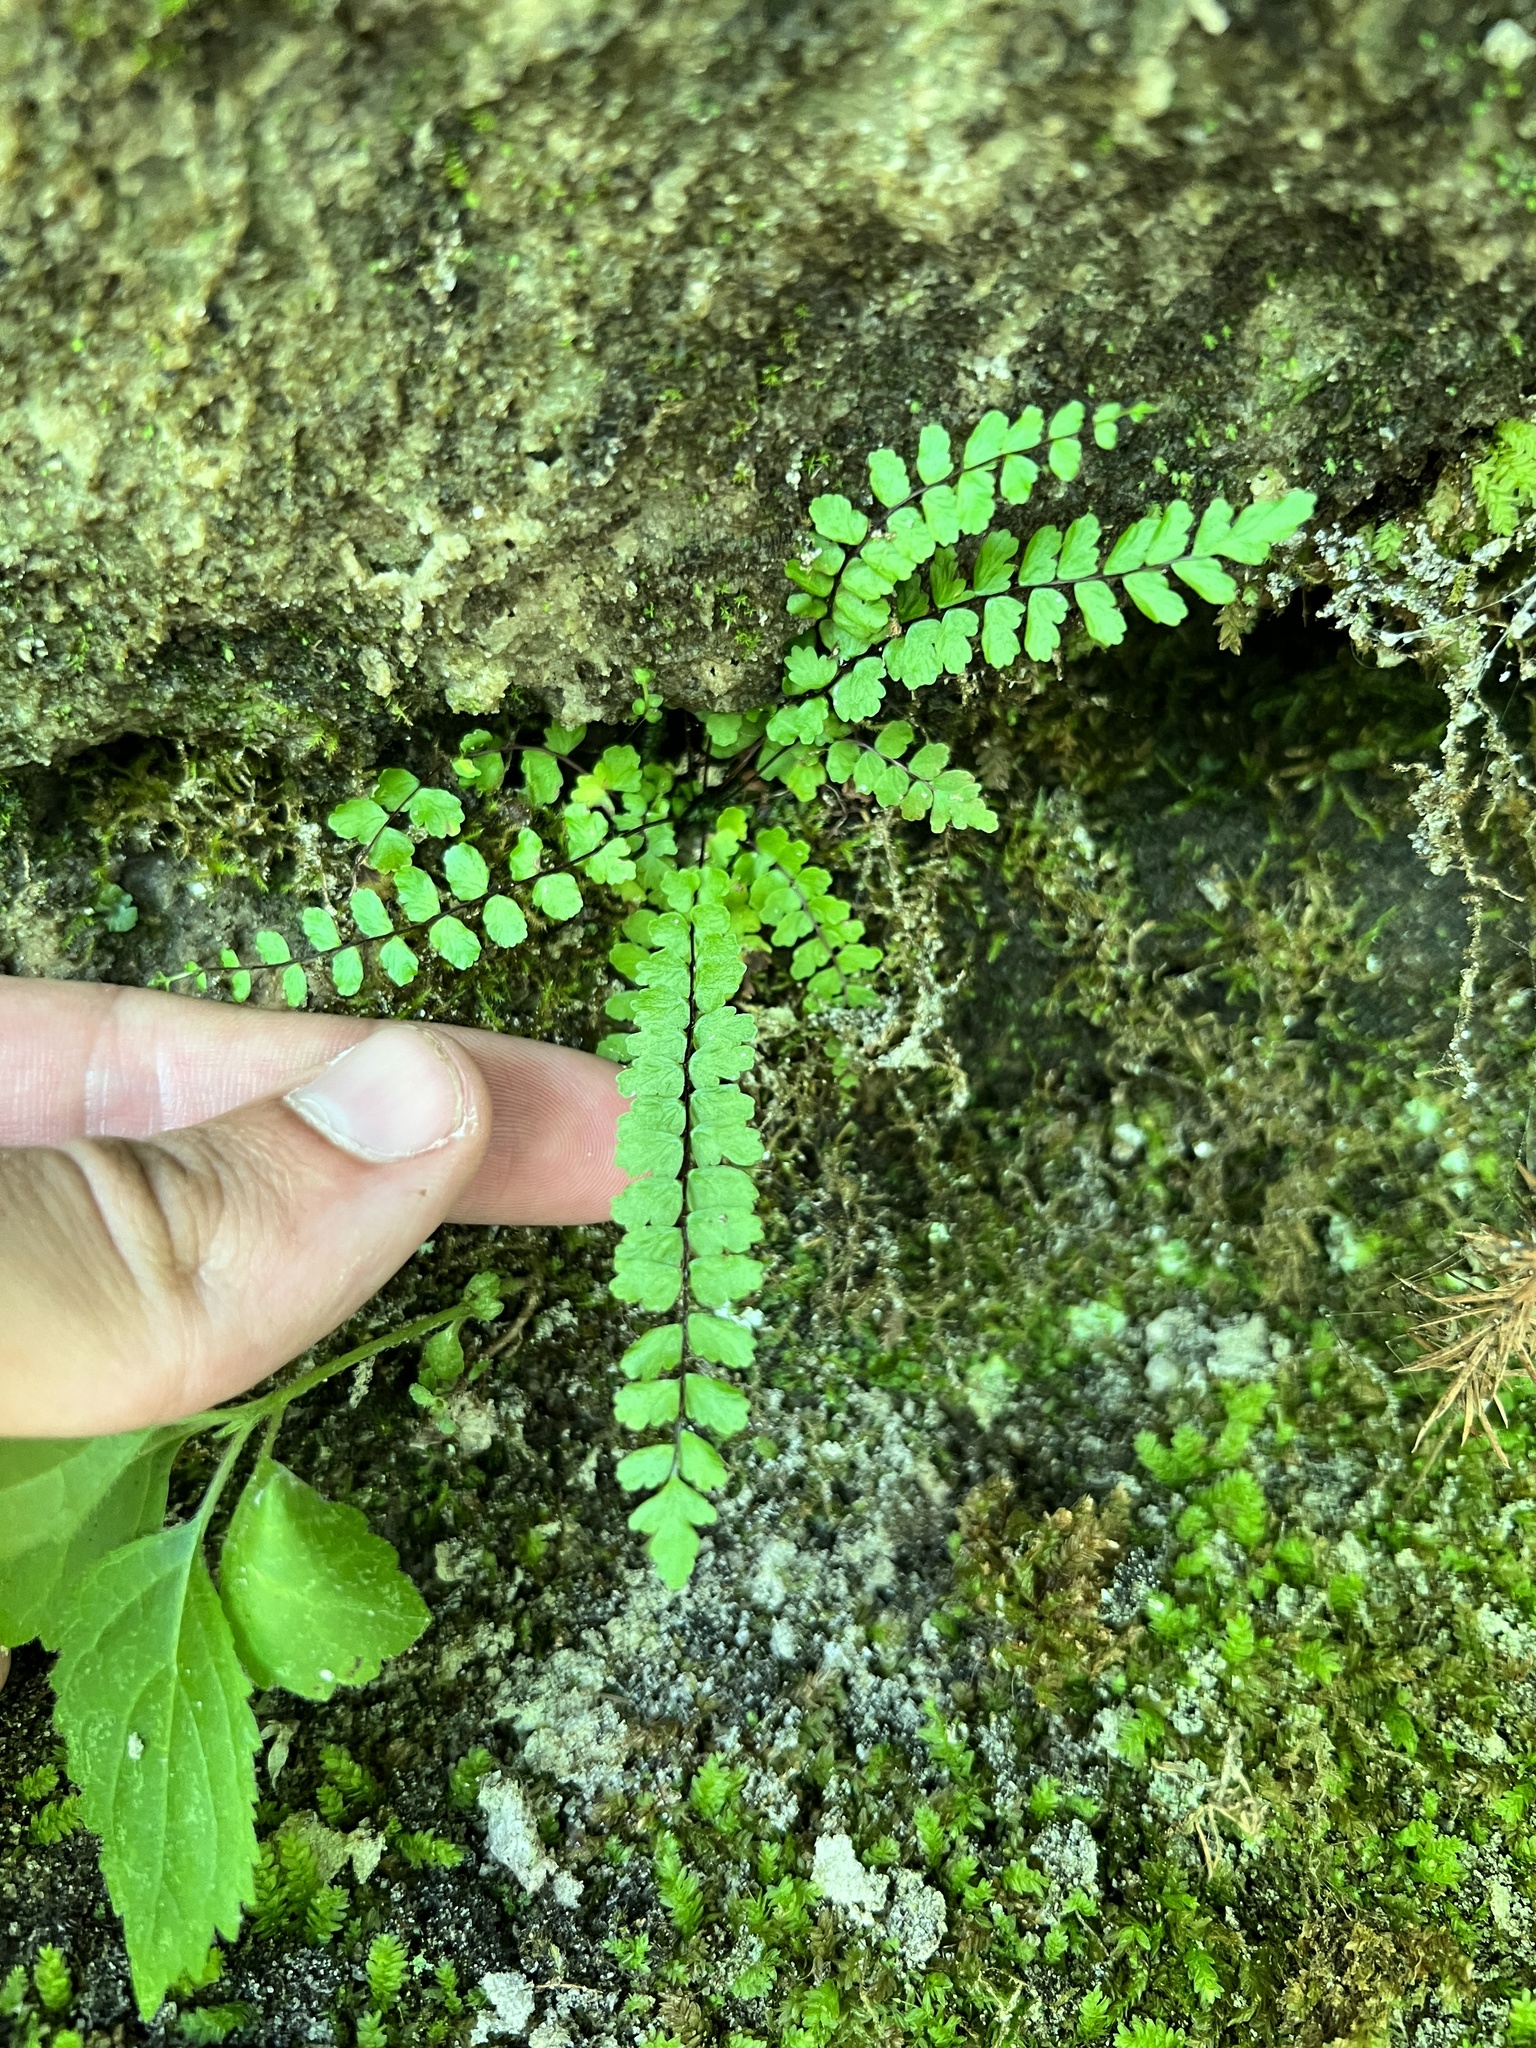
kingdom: Plantae
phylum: Tracheophyta
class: Polypodiopsida
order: Polypodiales
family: Aspleniaceae
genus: Asplenium
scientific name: Asplenium trichomanes
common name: Maidenhair spleenwort
